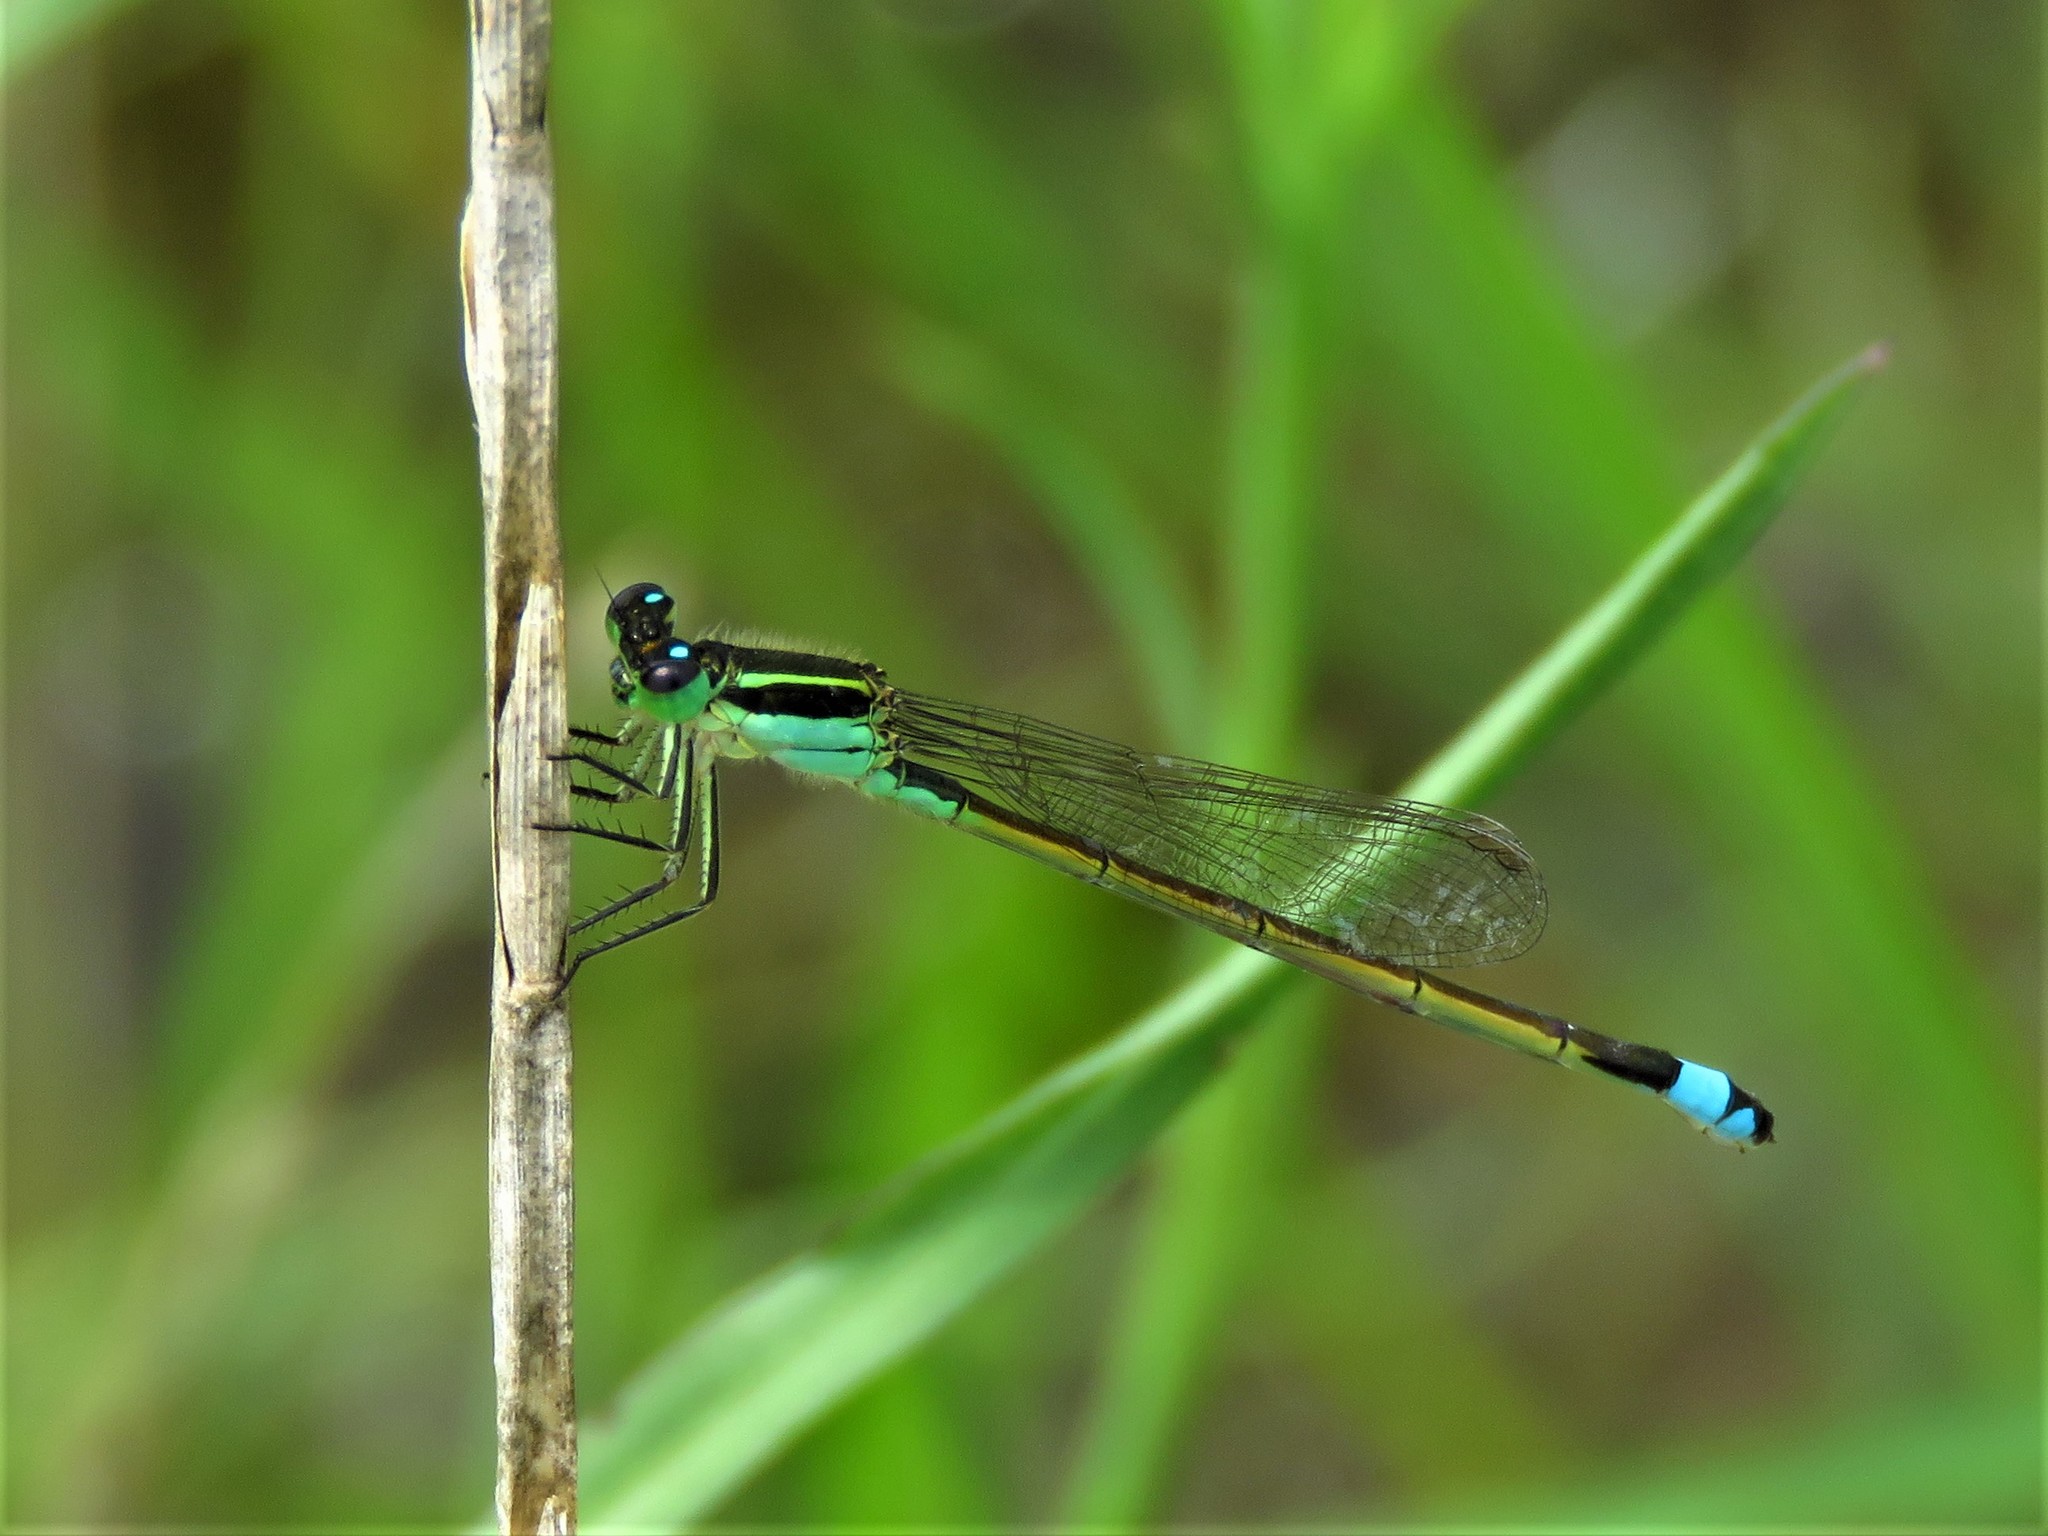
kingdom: Animalia
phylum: Arthropoda
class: Insecta
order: Odonata
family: Coenagrionidae
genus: Ischnura
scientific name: Ischnura ramburii
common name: Rambur's forktail
